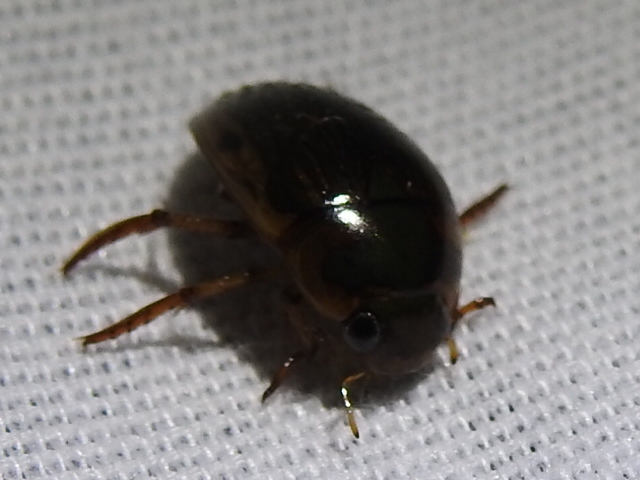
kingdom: Animalia
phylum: Arthropoda
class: Insecta
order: Coleoptera
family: Hydrophilidae
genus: Tropisternus
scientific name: Tropisternus collaris
